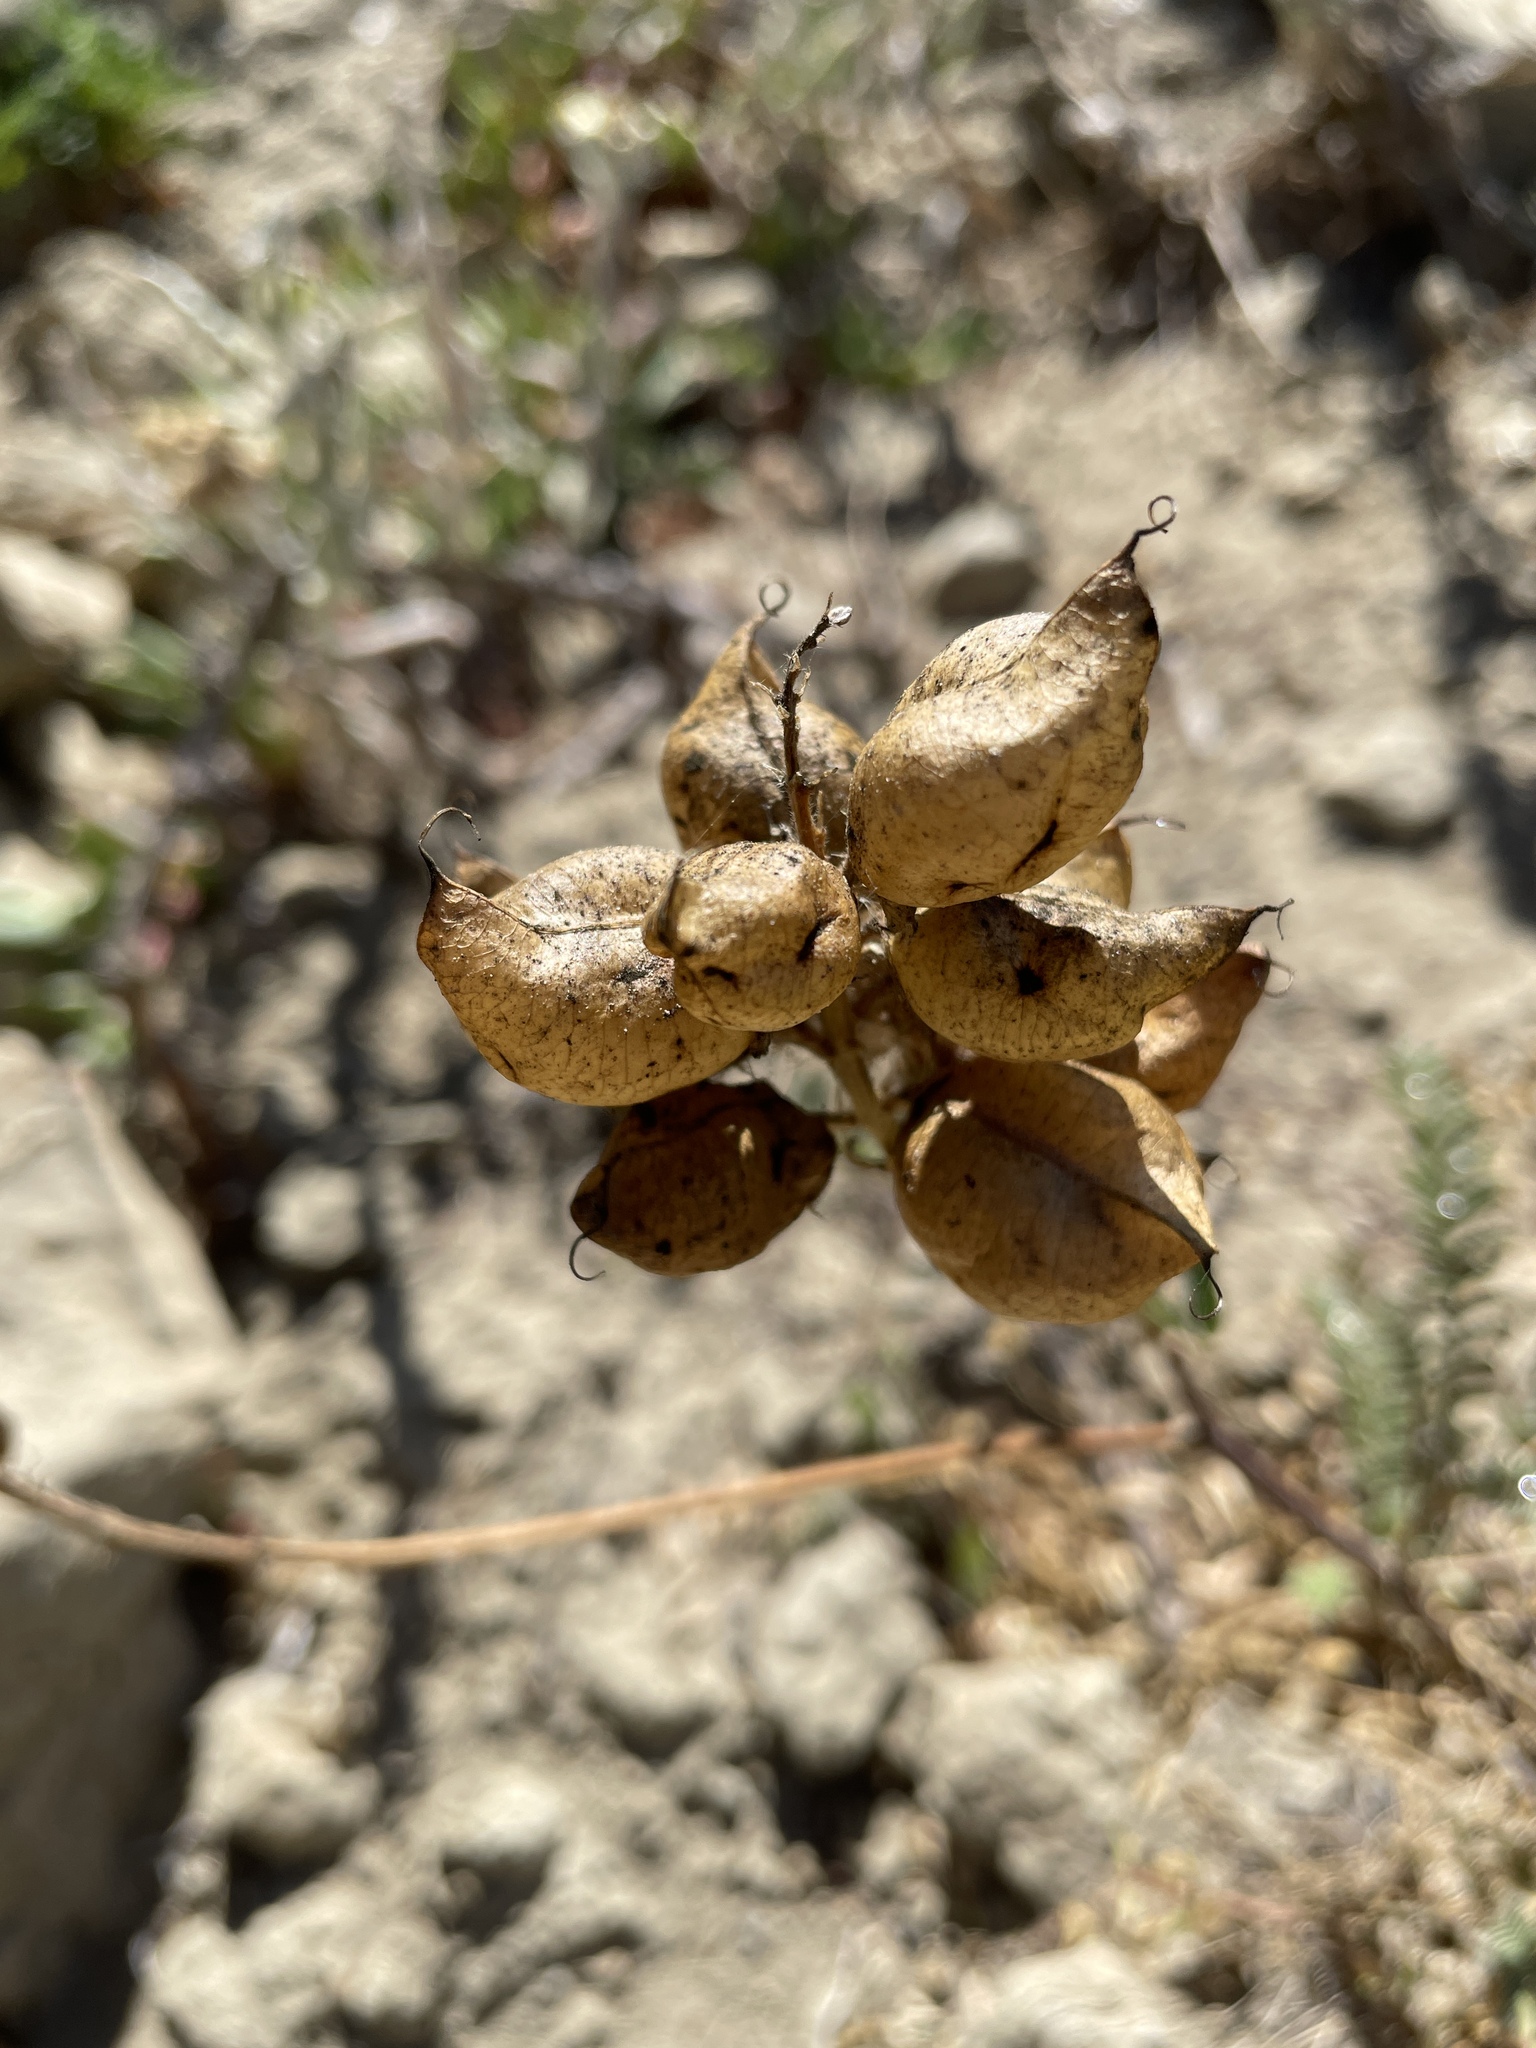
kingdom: Plantae
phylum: Tracheophyta
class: Magnoliopsida
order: Fabales
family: Fabaceae
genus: Astragalus
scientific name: Astragalus nuttallii
